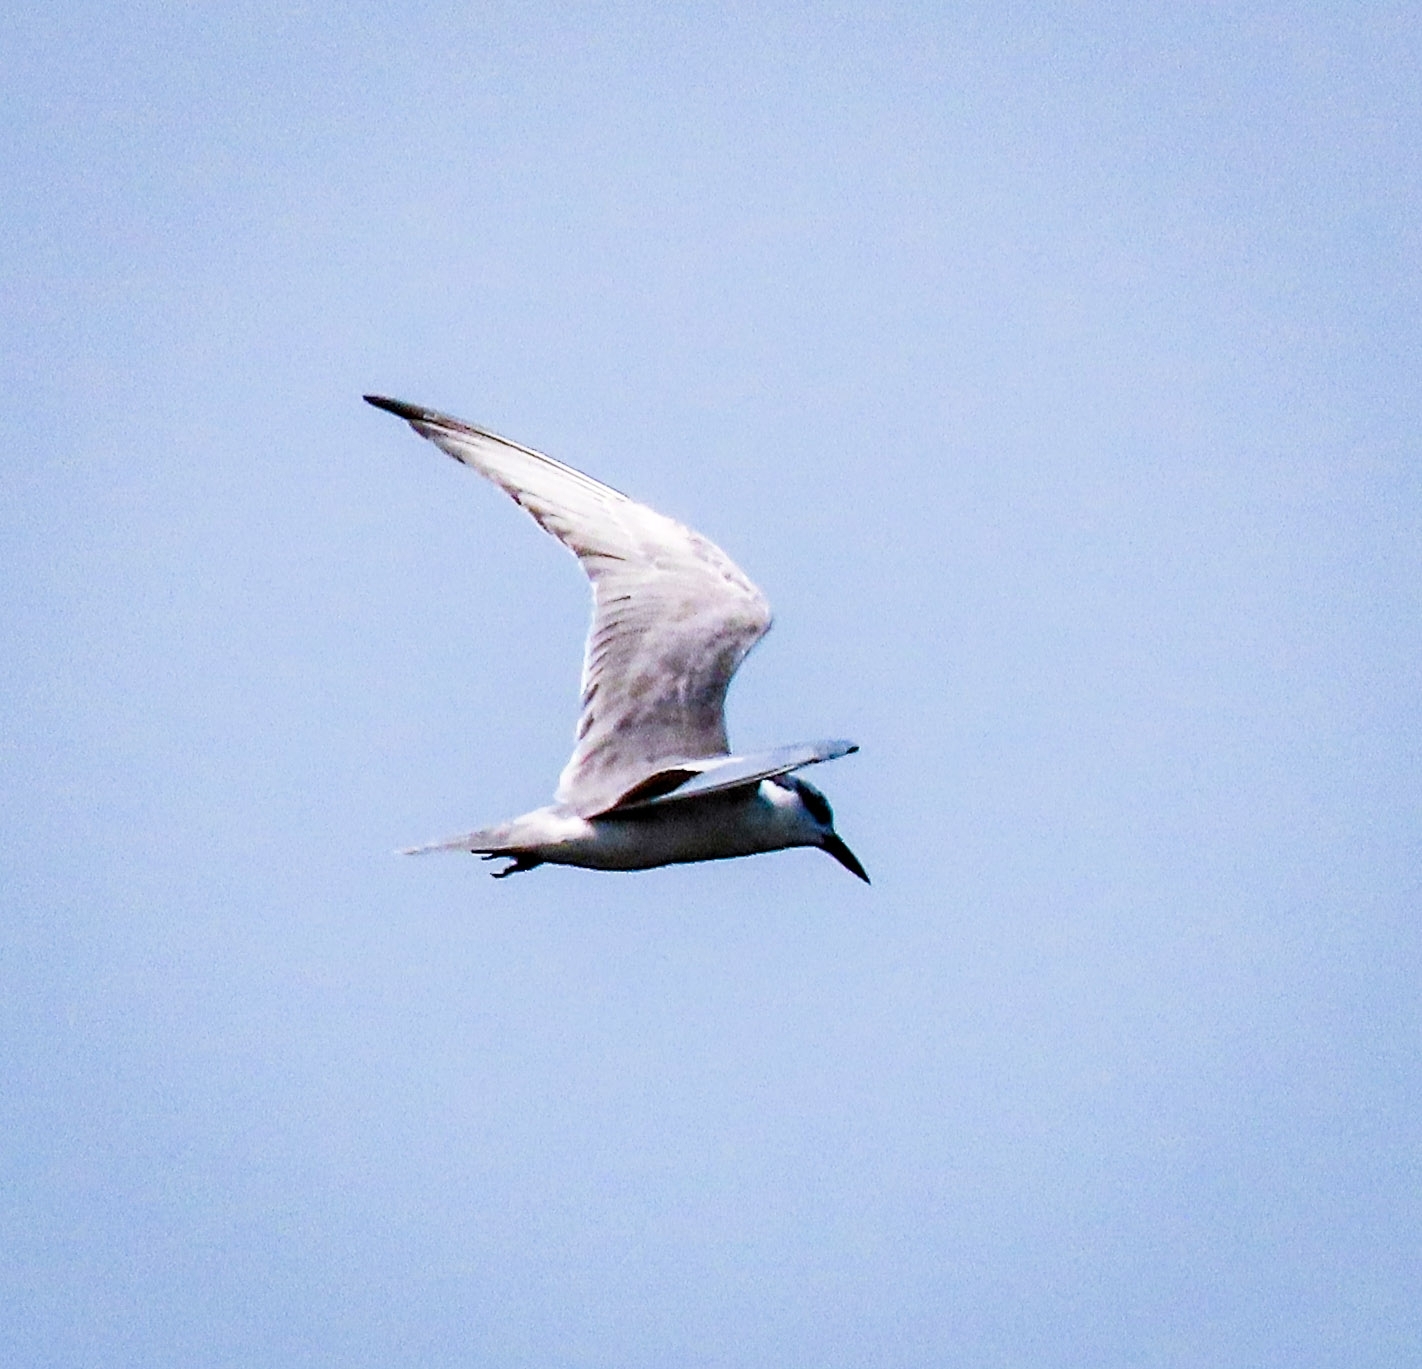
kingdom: Animalia
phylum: Chordata
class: Aves
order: Charadriiformes
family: Laridae
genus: Chlidonias
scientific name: Chlidonias hybrida
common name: Whiskered tern
